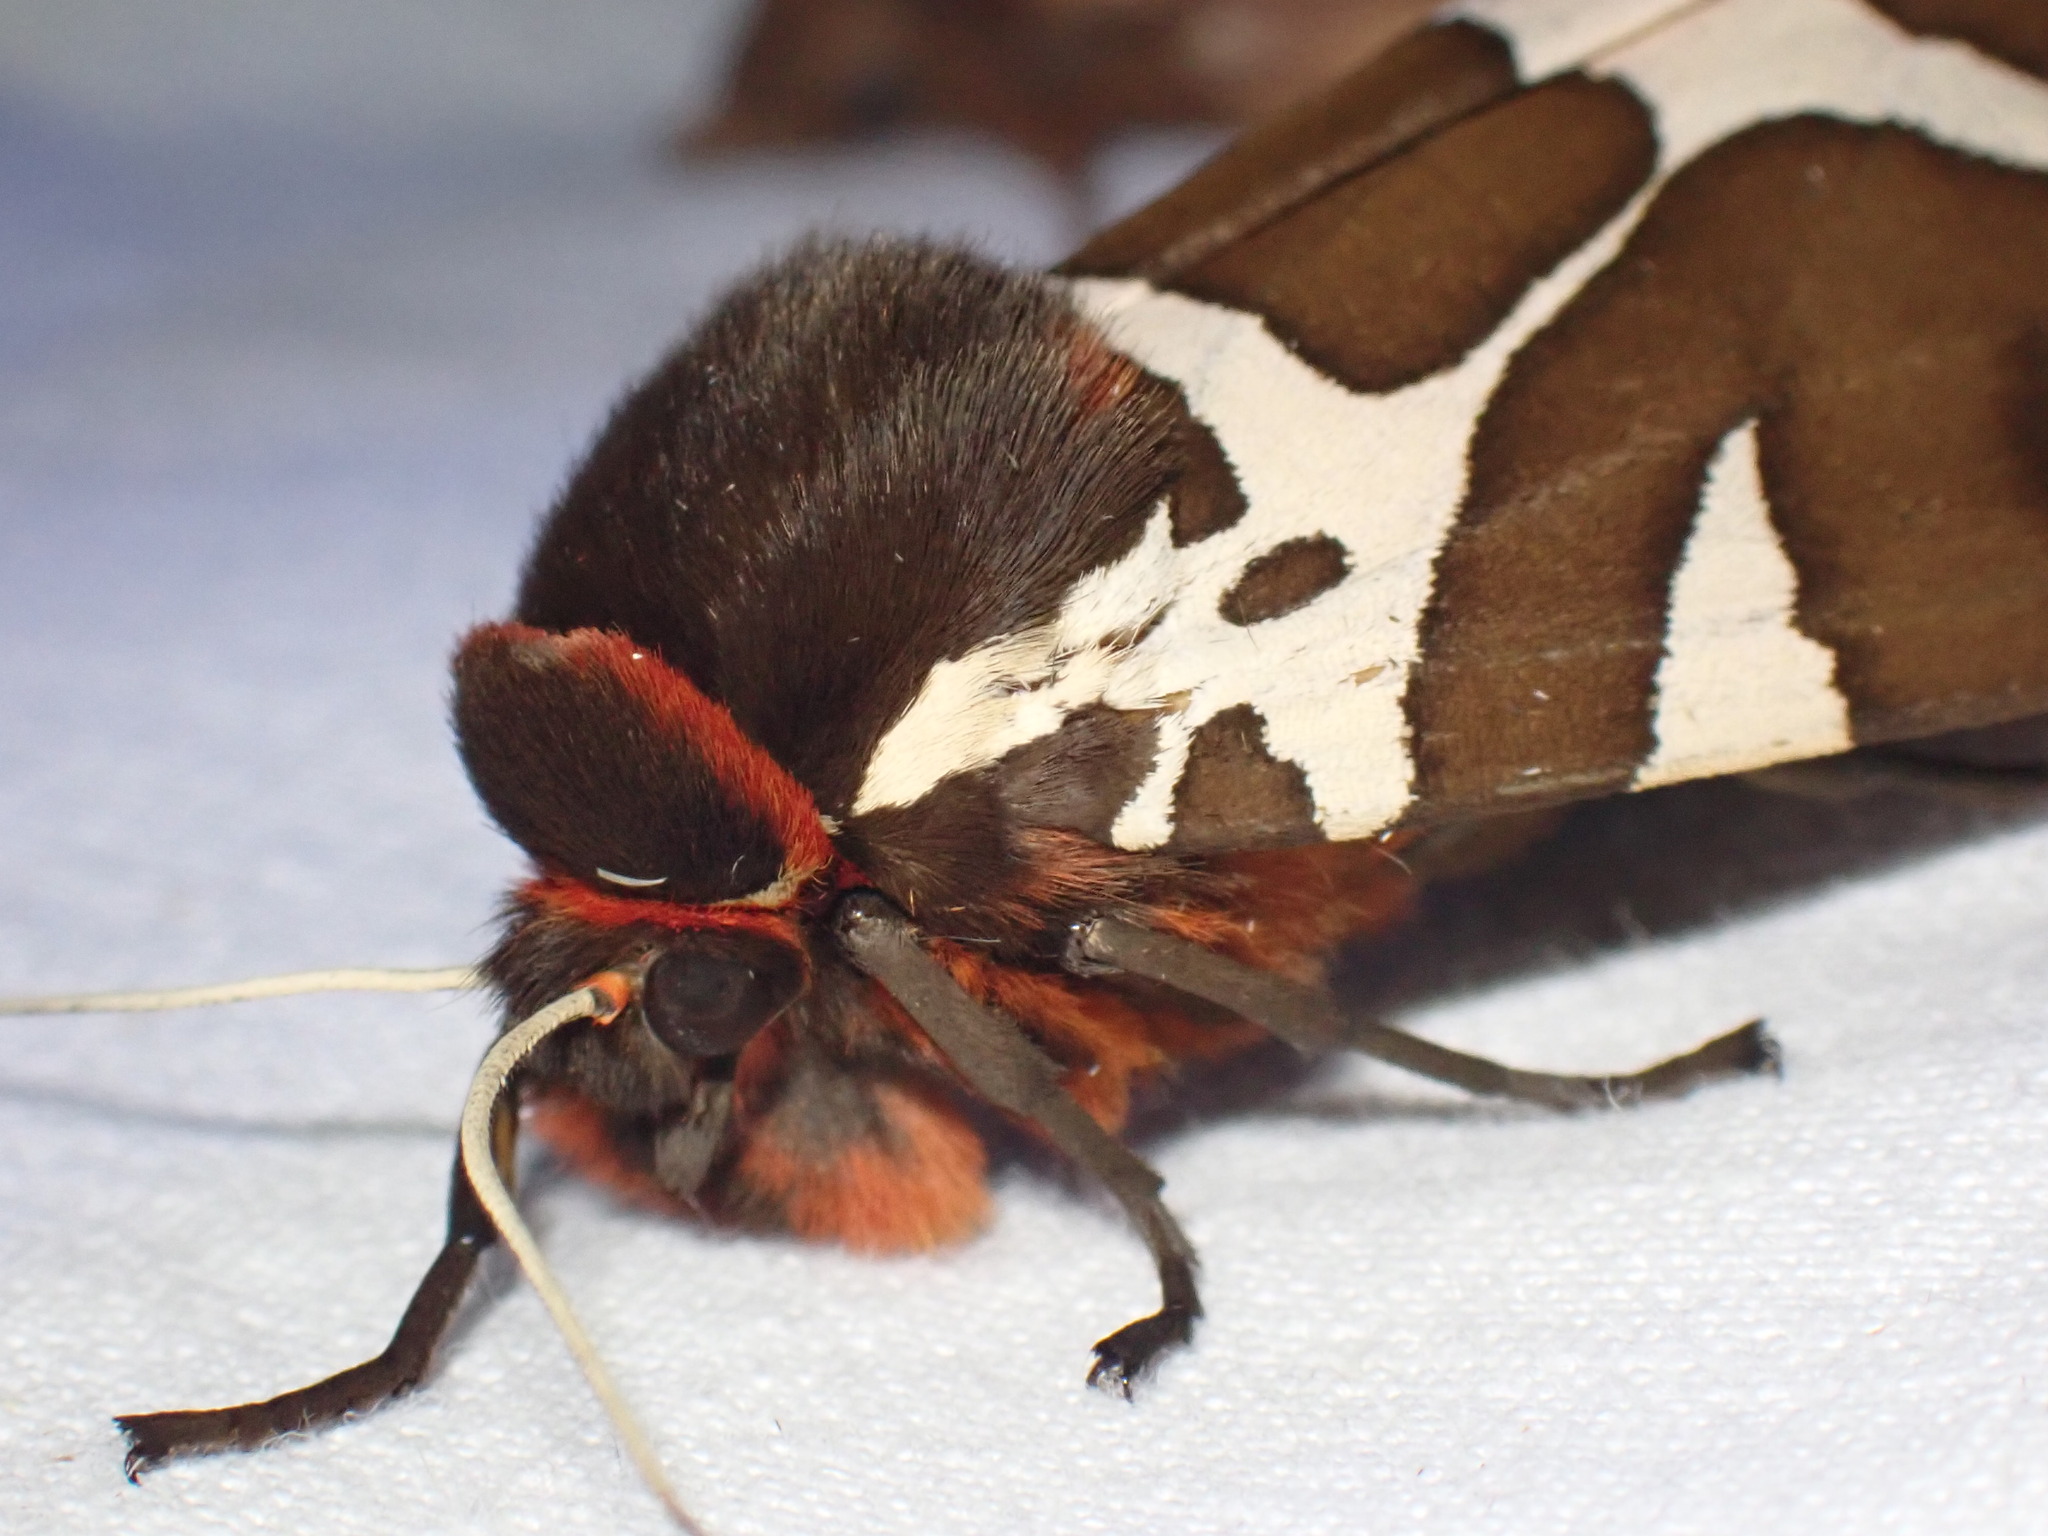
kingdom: Animalia
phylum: Arthropoda
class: Insecta
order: Lepidoptera
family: Erebidae
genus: Arctia
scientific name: Arctia caja
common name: Garden tiger
